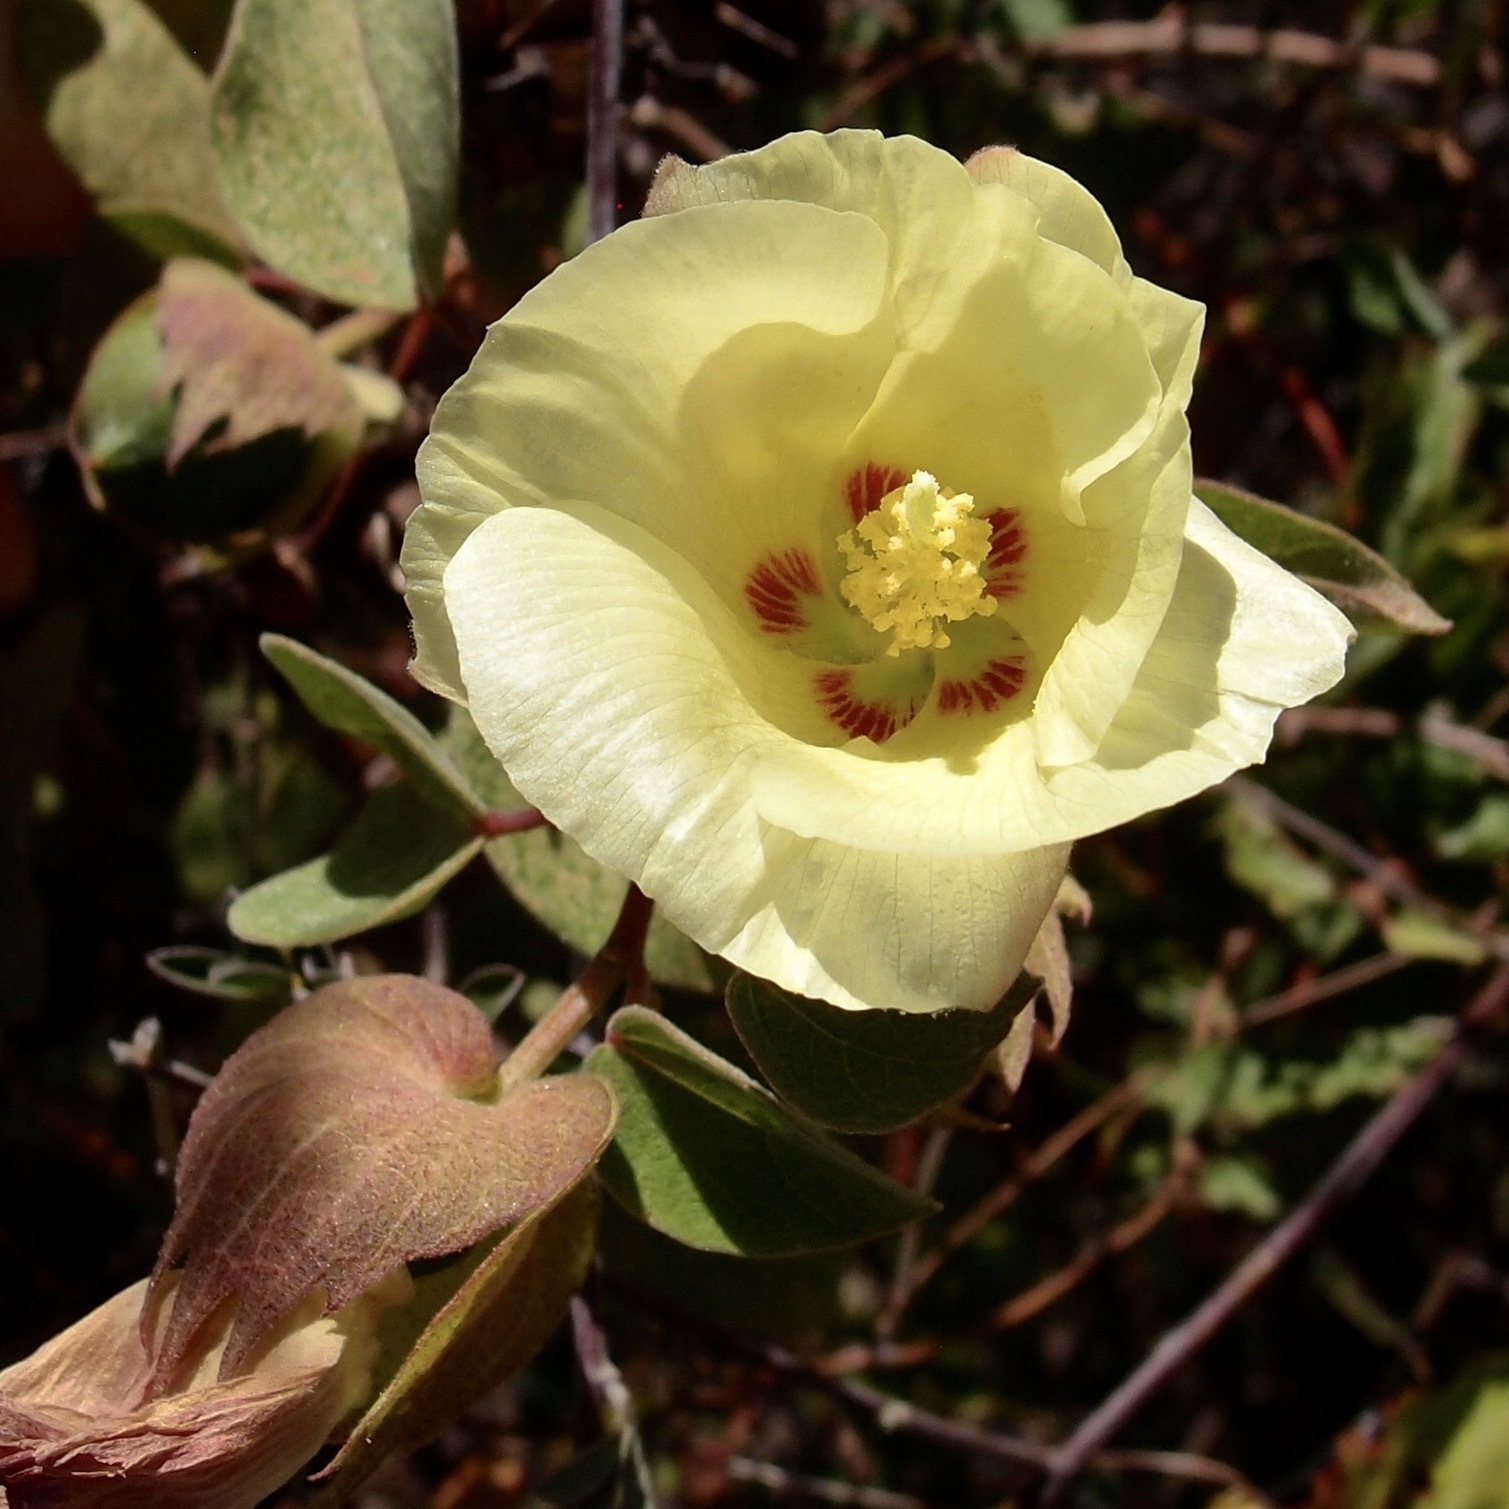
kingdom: Plantae
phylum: Tracheophyta
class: Magnoliopsida
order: Malvales
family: Malvaceae
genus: Gossypium
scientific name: Gossypium klotzschianum
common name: Galapagos cotton
